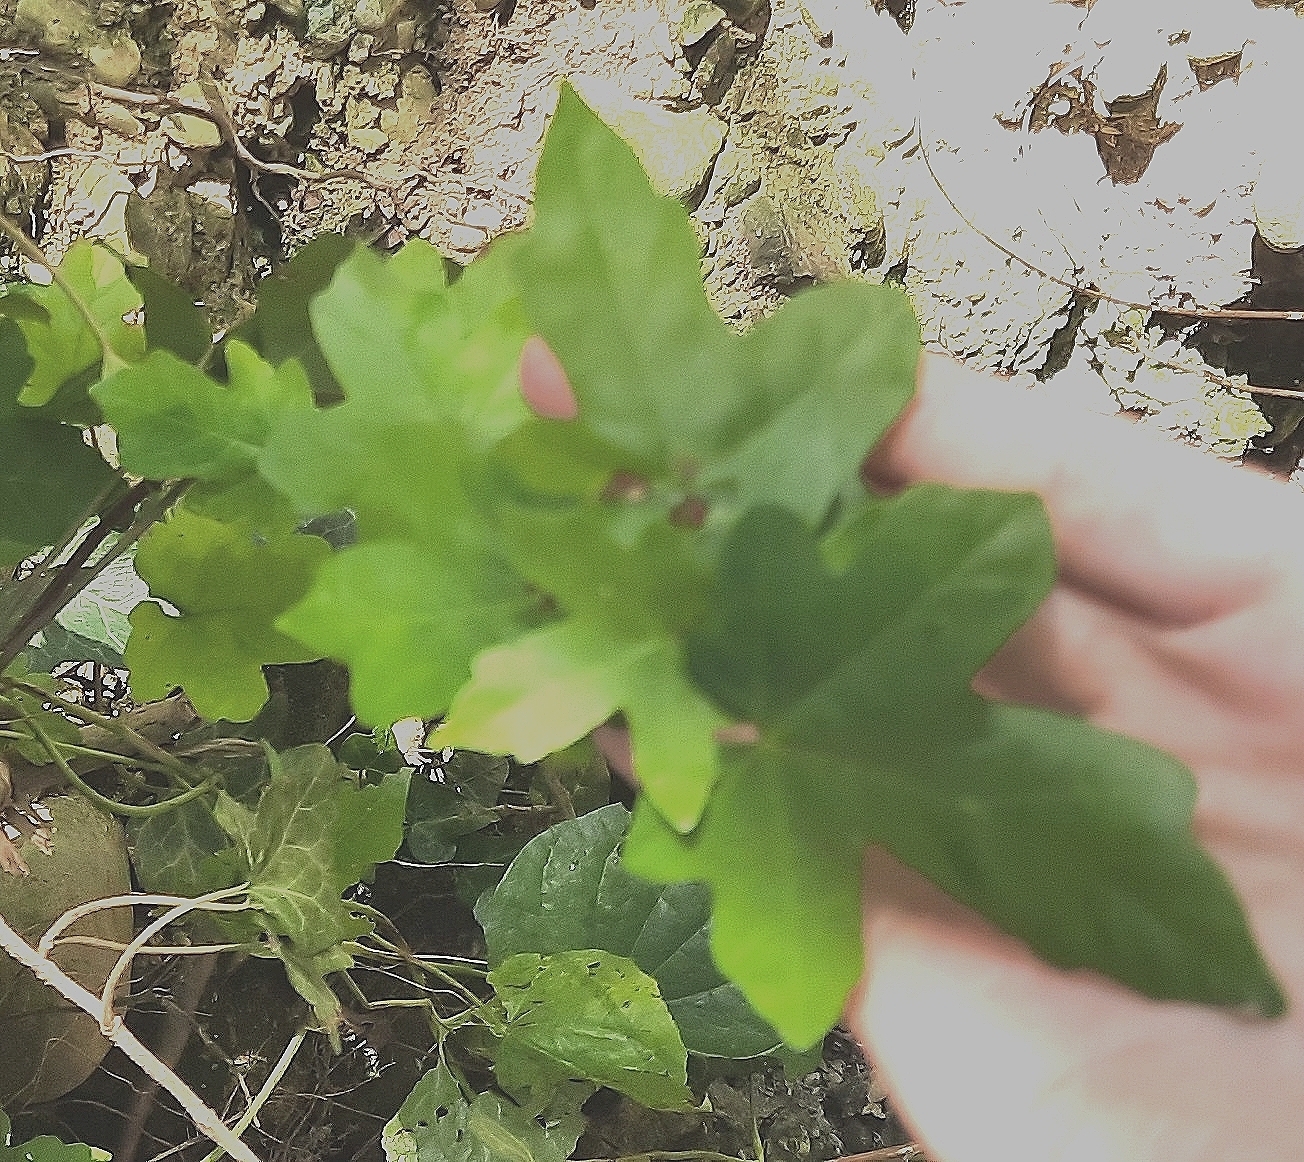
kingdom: Plantae
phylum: Tracheophyta
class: Magnoliopsida
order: Sapindales
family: Sapindaceae
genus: Acer
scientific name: Acer campestre
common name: Field maple
